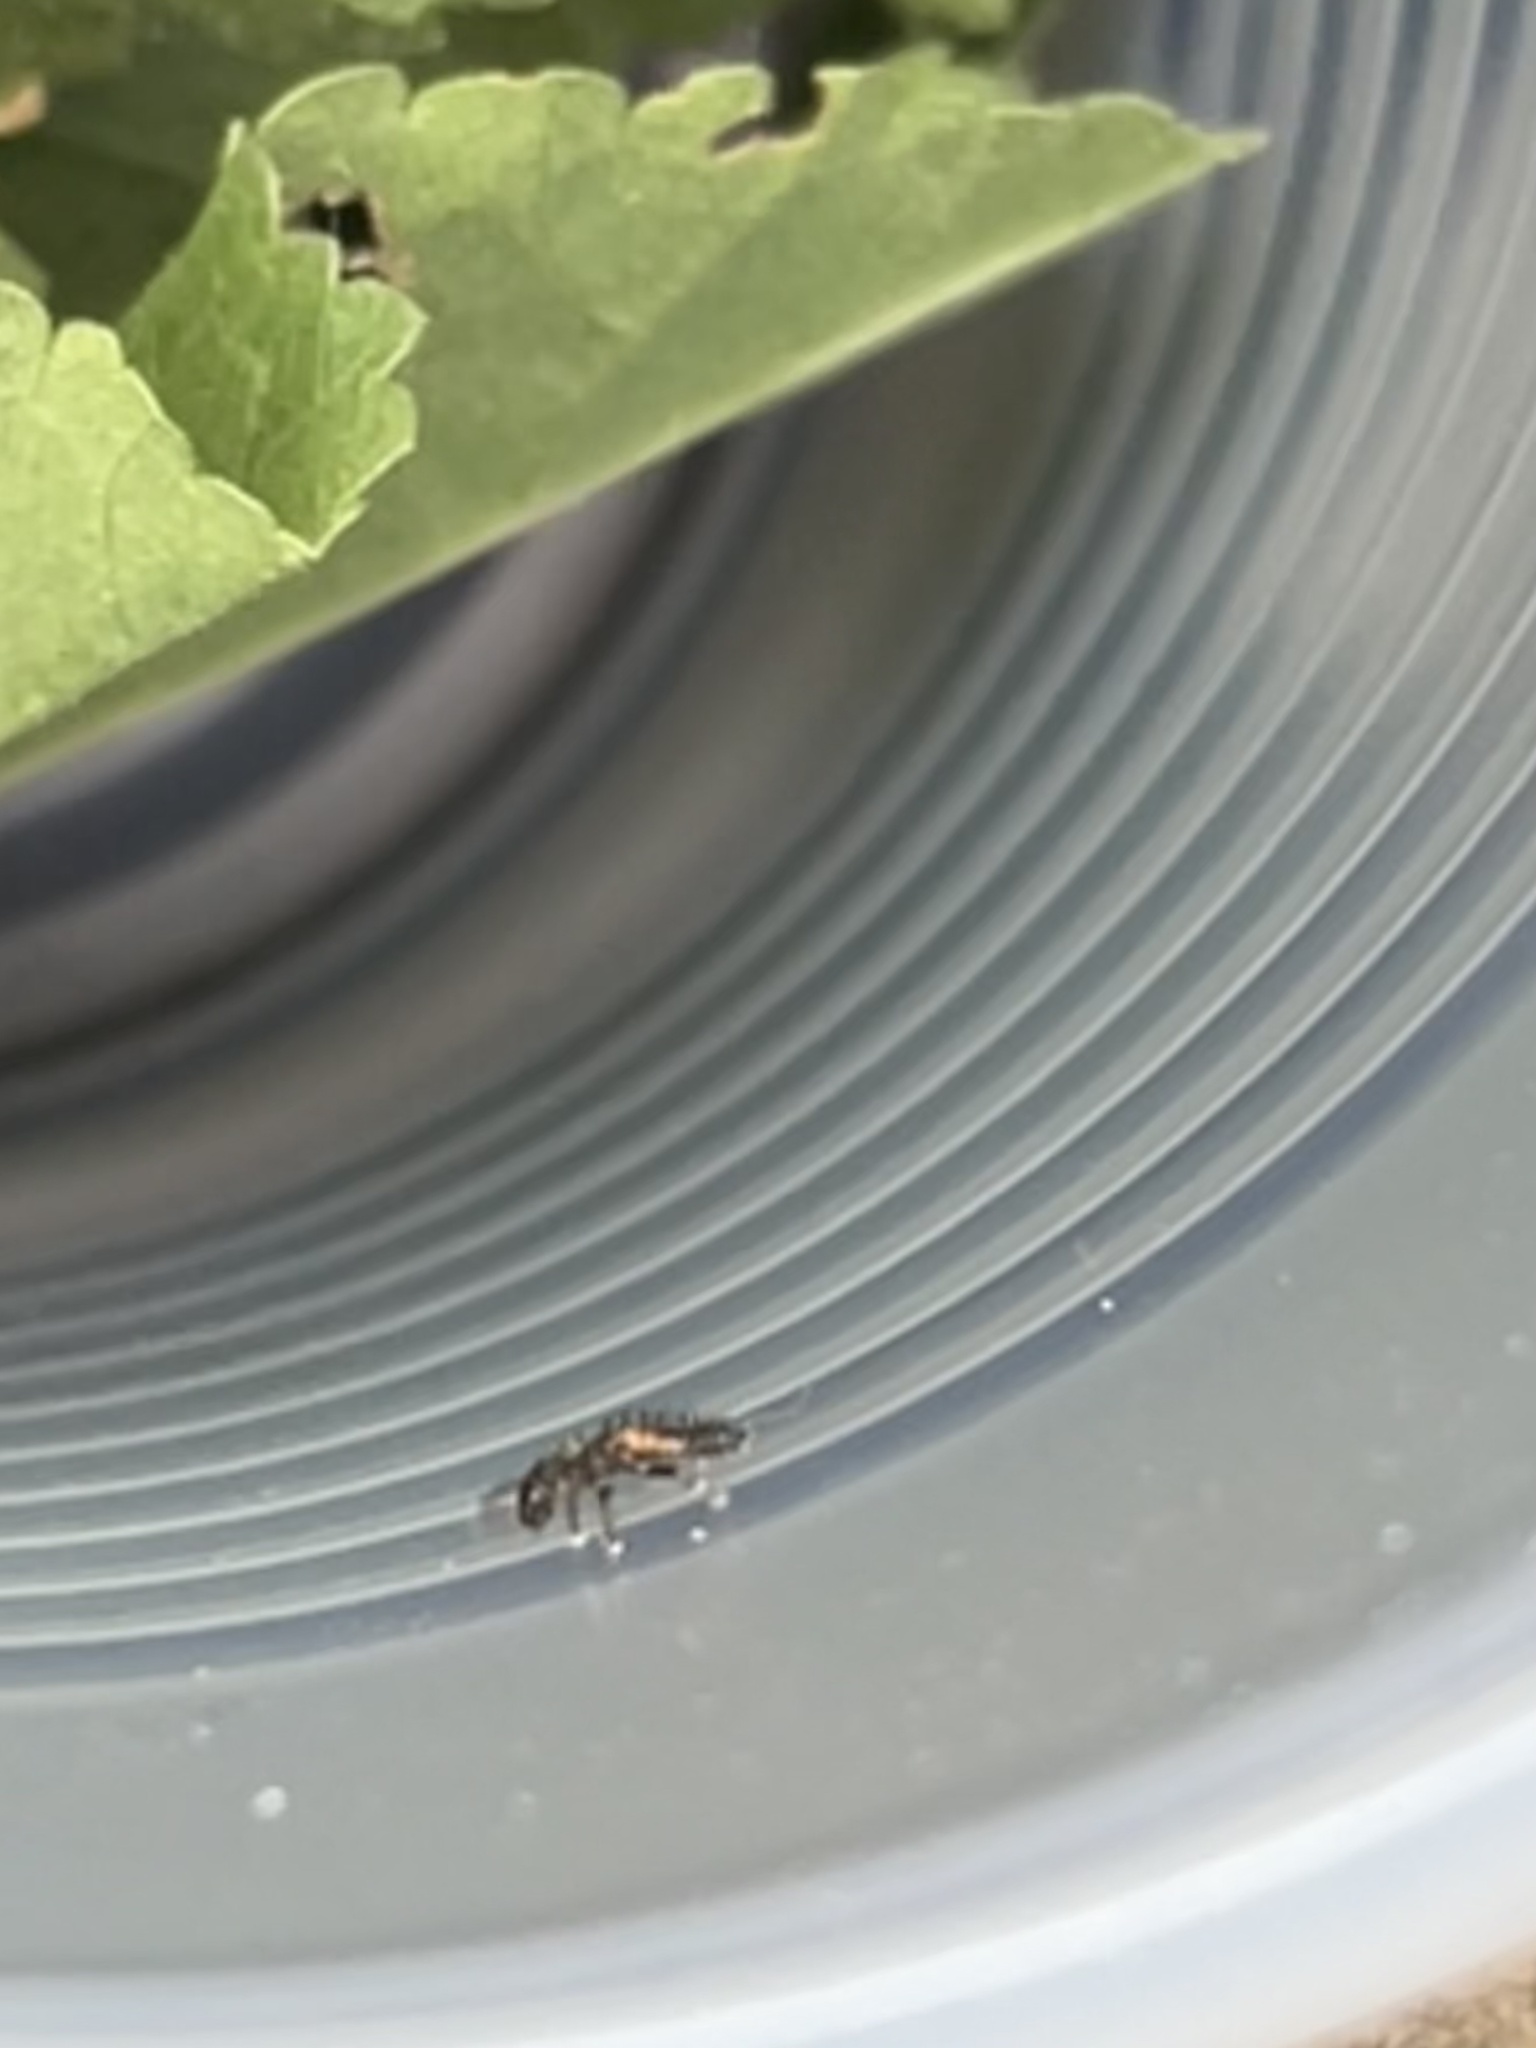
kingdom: Animalia
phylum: Arthropoda
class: Insecta
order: Coleoptera
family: Coccinellidae
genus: Harmonia
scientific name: Harmonia axyridis
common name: Harlequin ladybird
